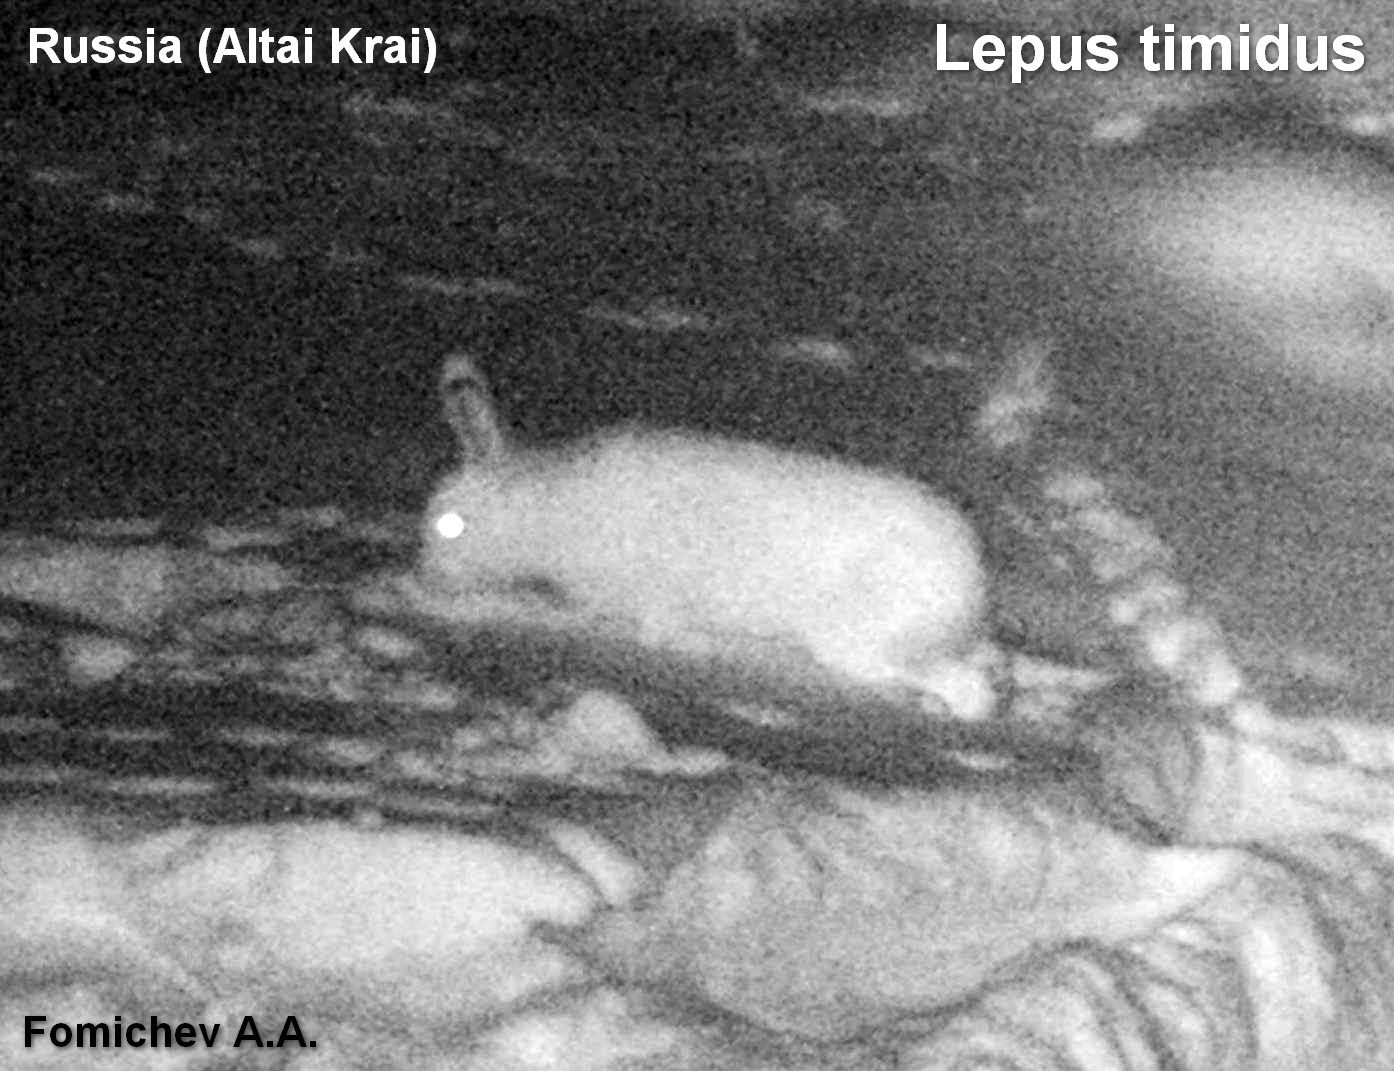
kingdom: Animalia
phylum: Chordata
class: Mammalia
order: Lagomorpha
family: Leporidae
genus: Lepus
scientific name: Lepus timidus
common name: Mountain hare
